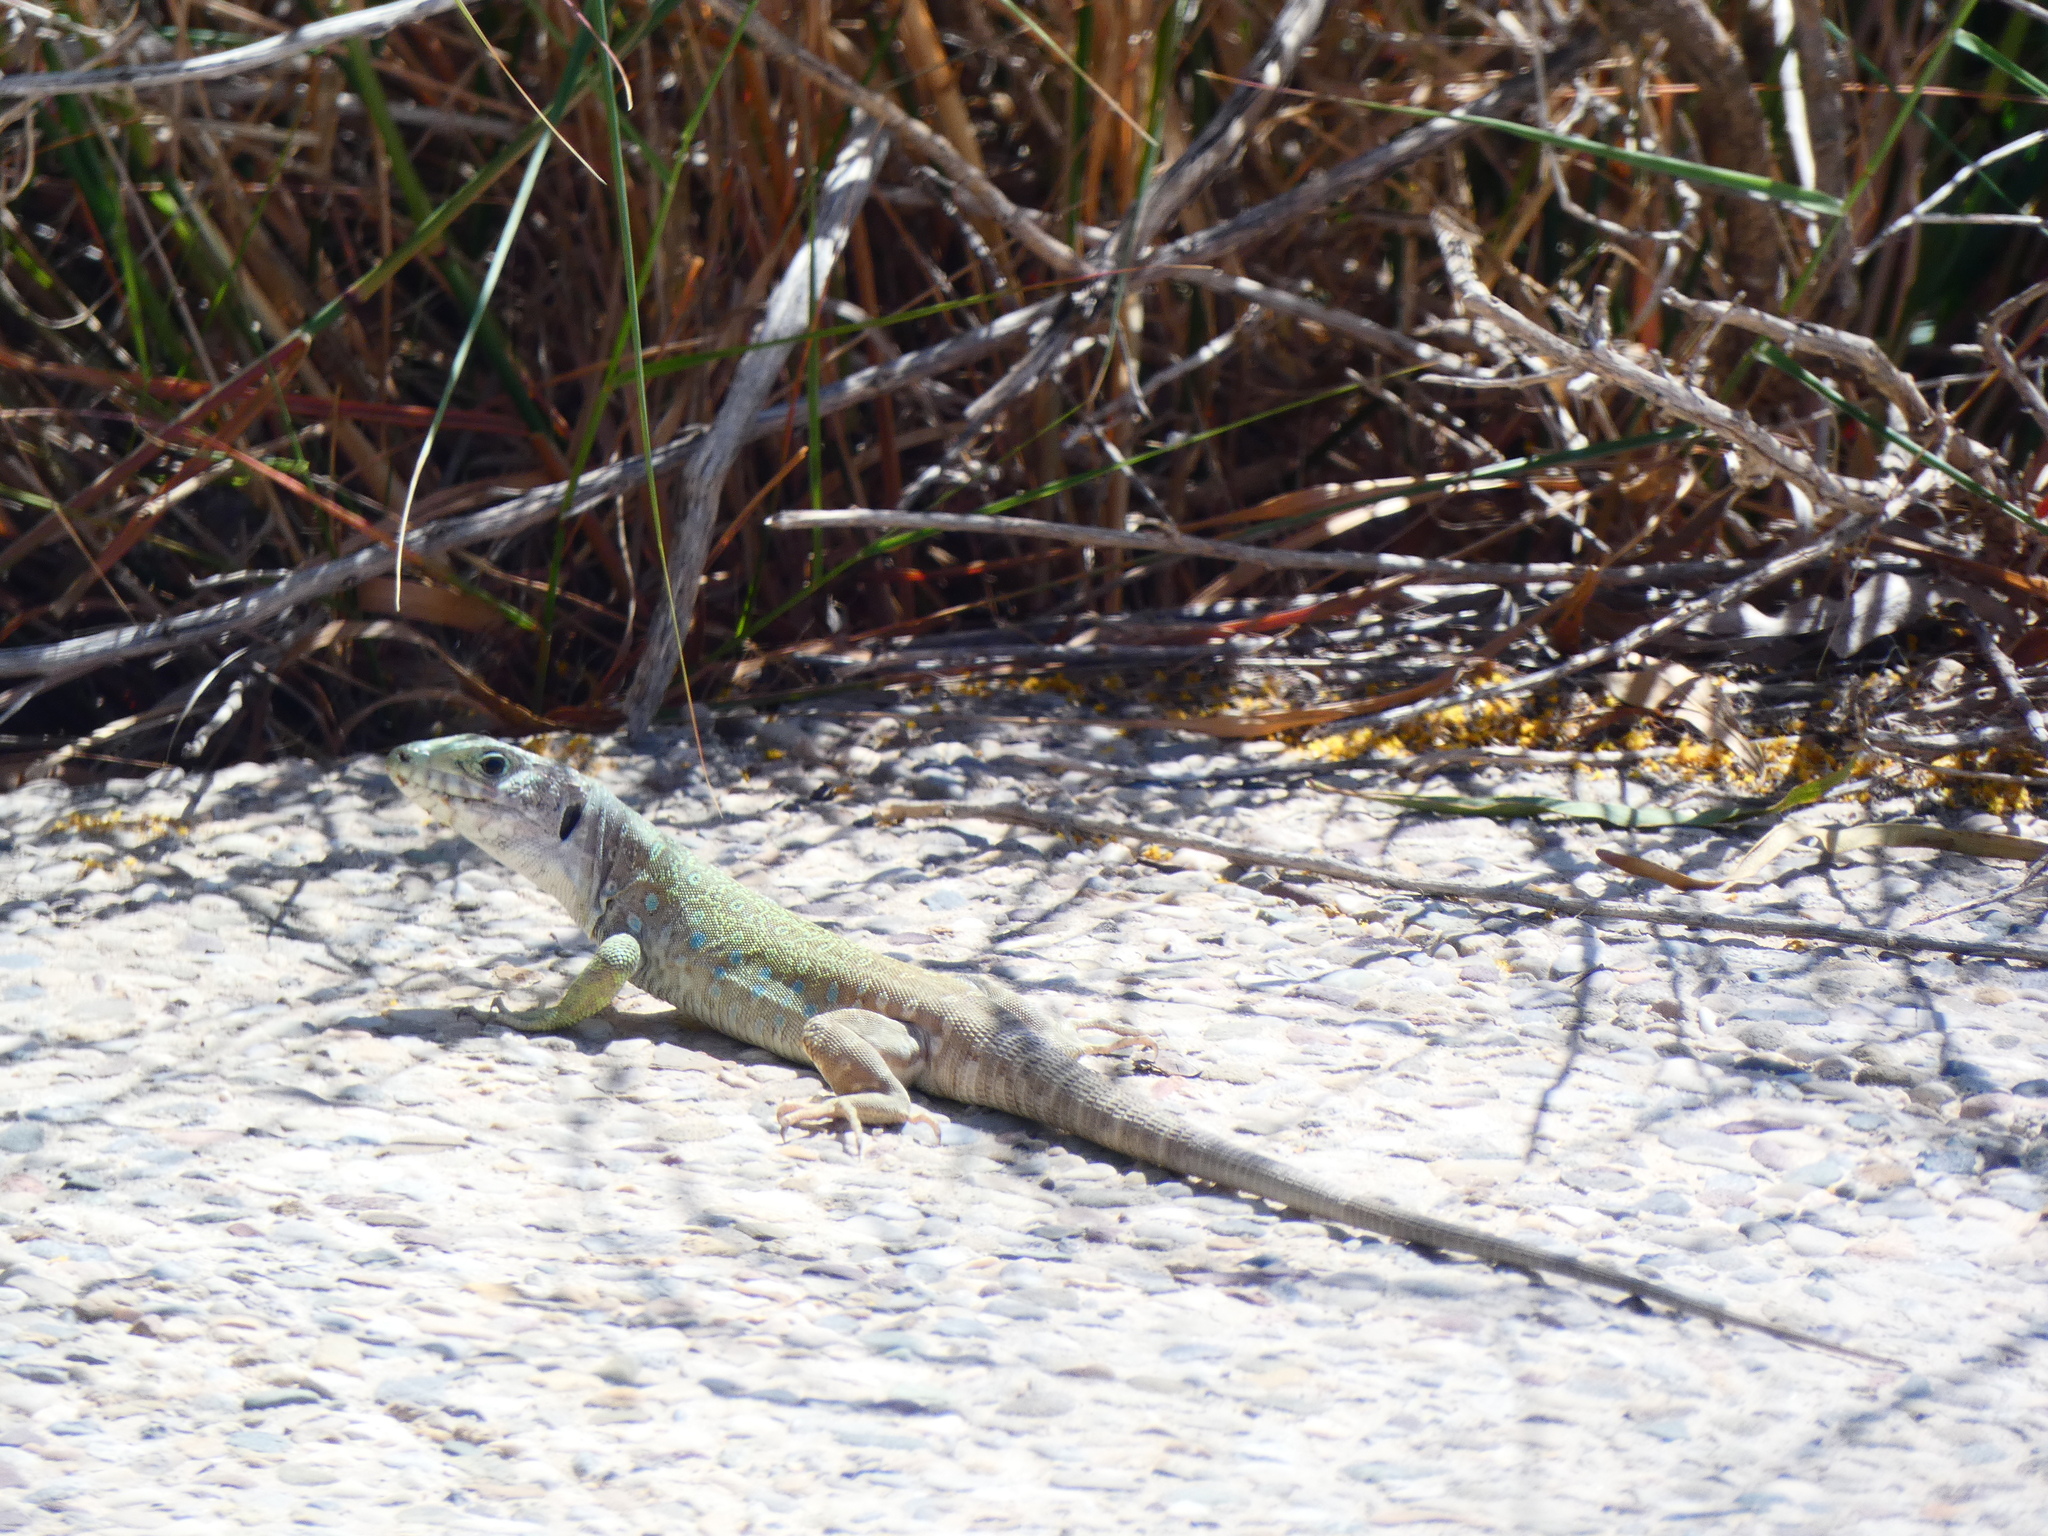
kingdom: Animalia
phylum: Chordata
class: Squamata
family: Lacertidae
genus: Timon
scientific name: Timon nevadensis
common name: Sierra nevada (ocellated) lizard
